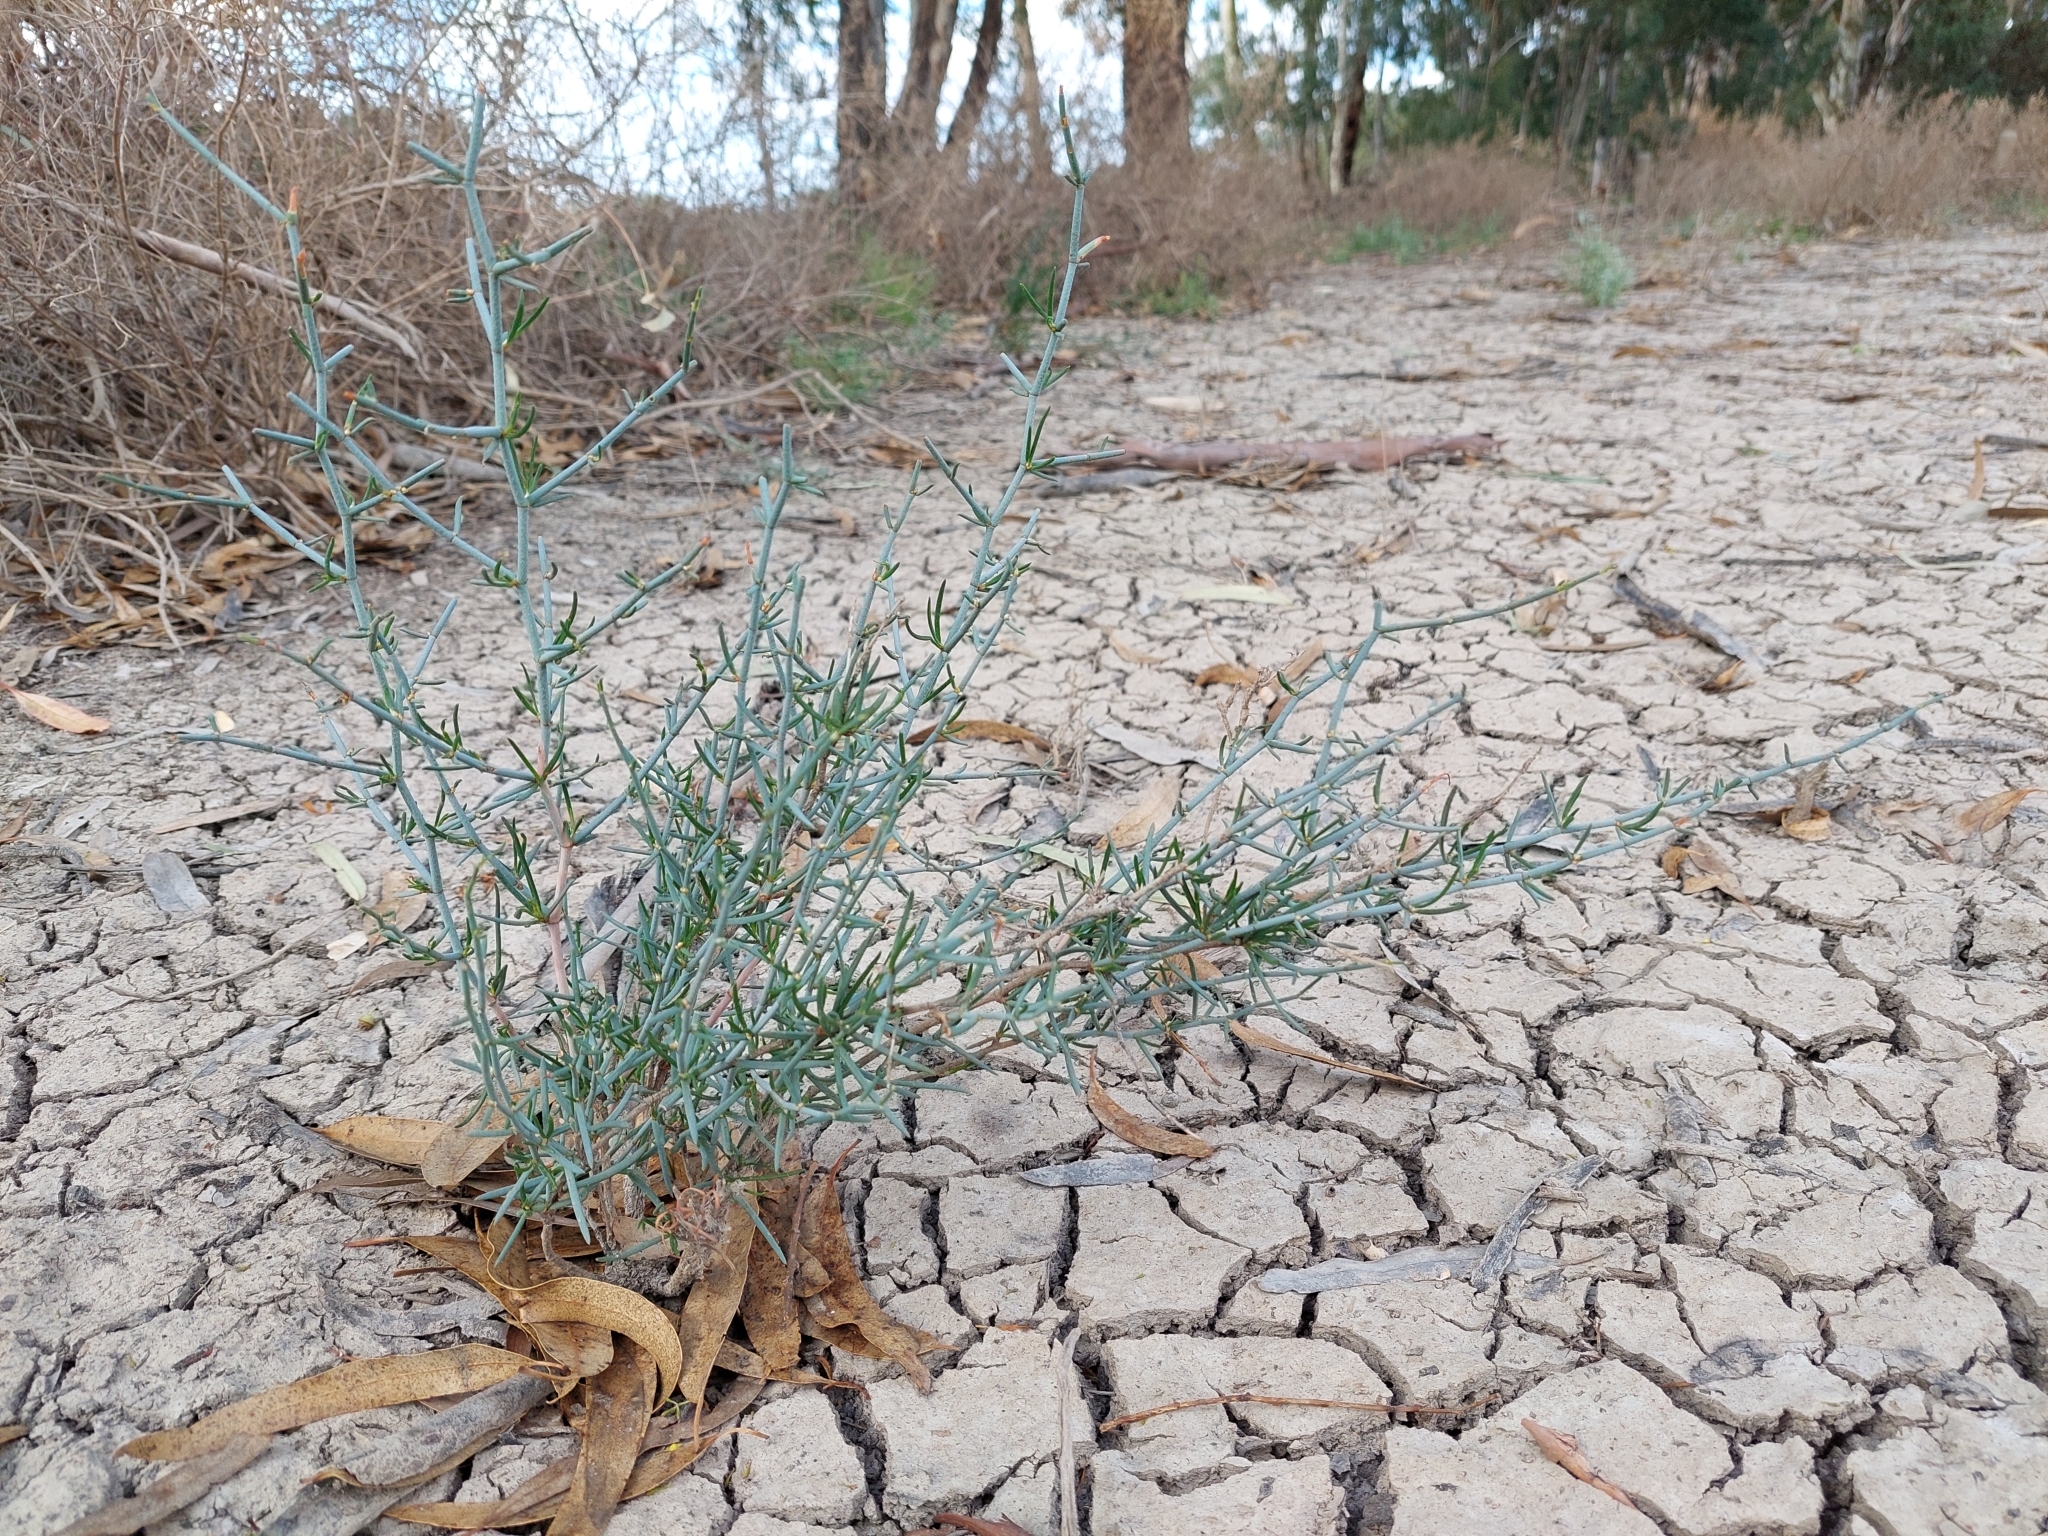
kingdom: Plantae
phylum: Tracheophyta
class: Magnoliopsida
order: Caryophyllales
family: Polygonaceae
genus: Duma
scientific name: Duma horrida
